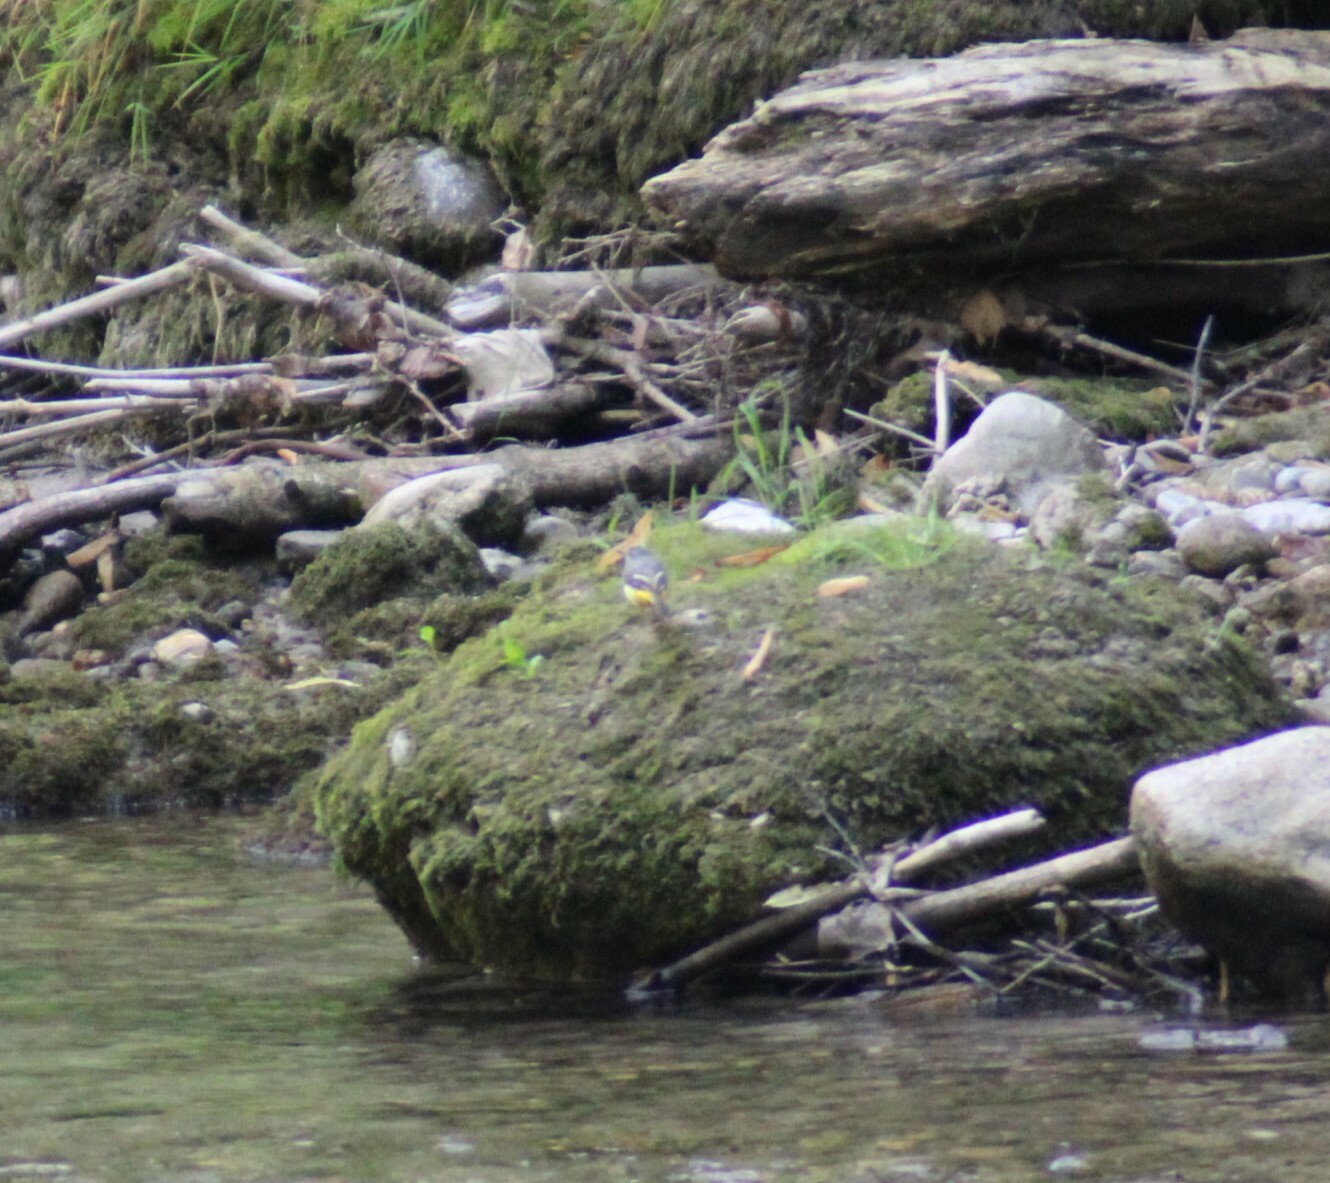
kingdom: Animalia
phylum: Chordata
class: Aves
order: Passeriformes
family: Motacillidae
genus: Motacilla
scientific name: Motacilla cinerea
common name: Grey wagtail
